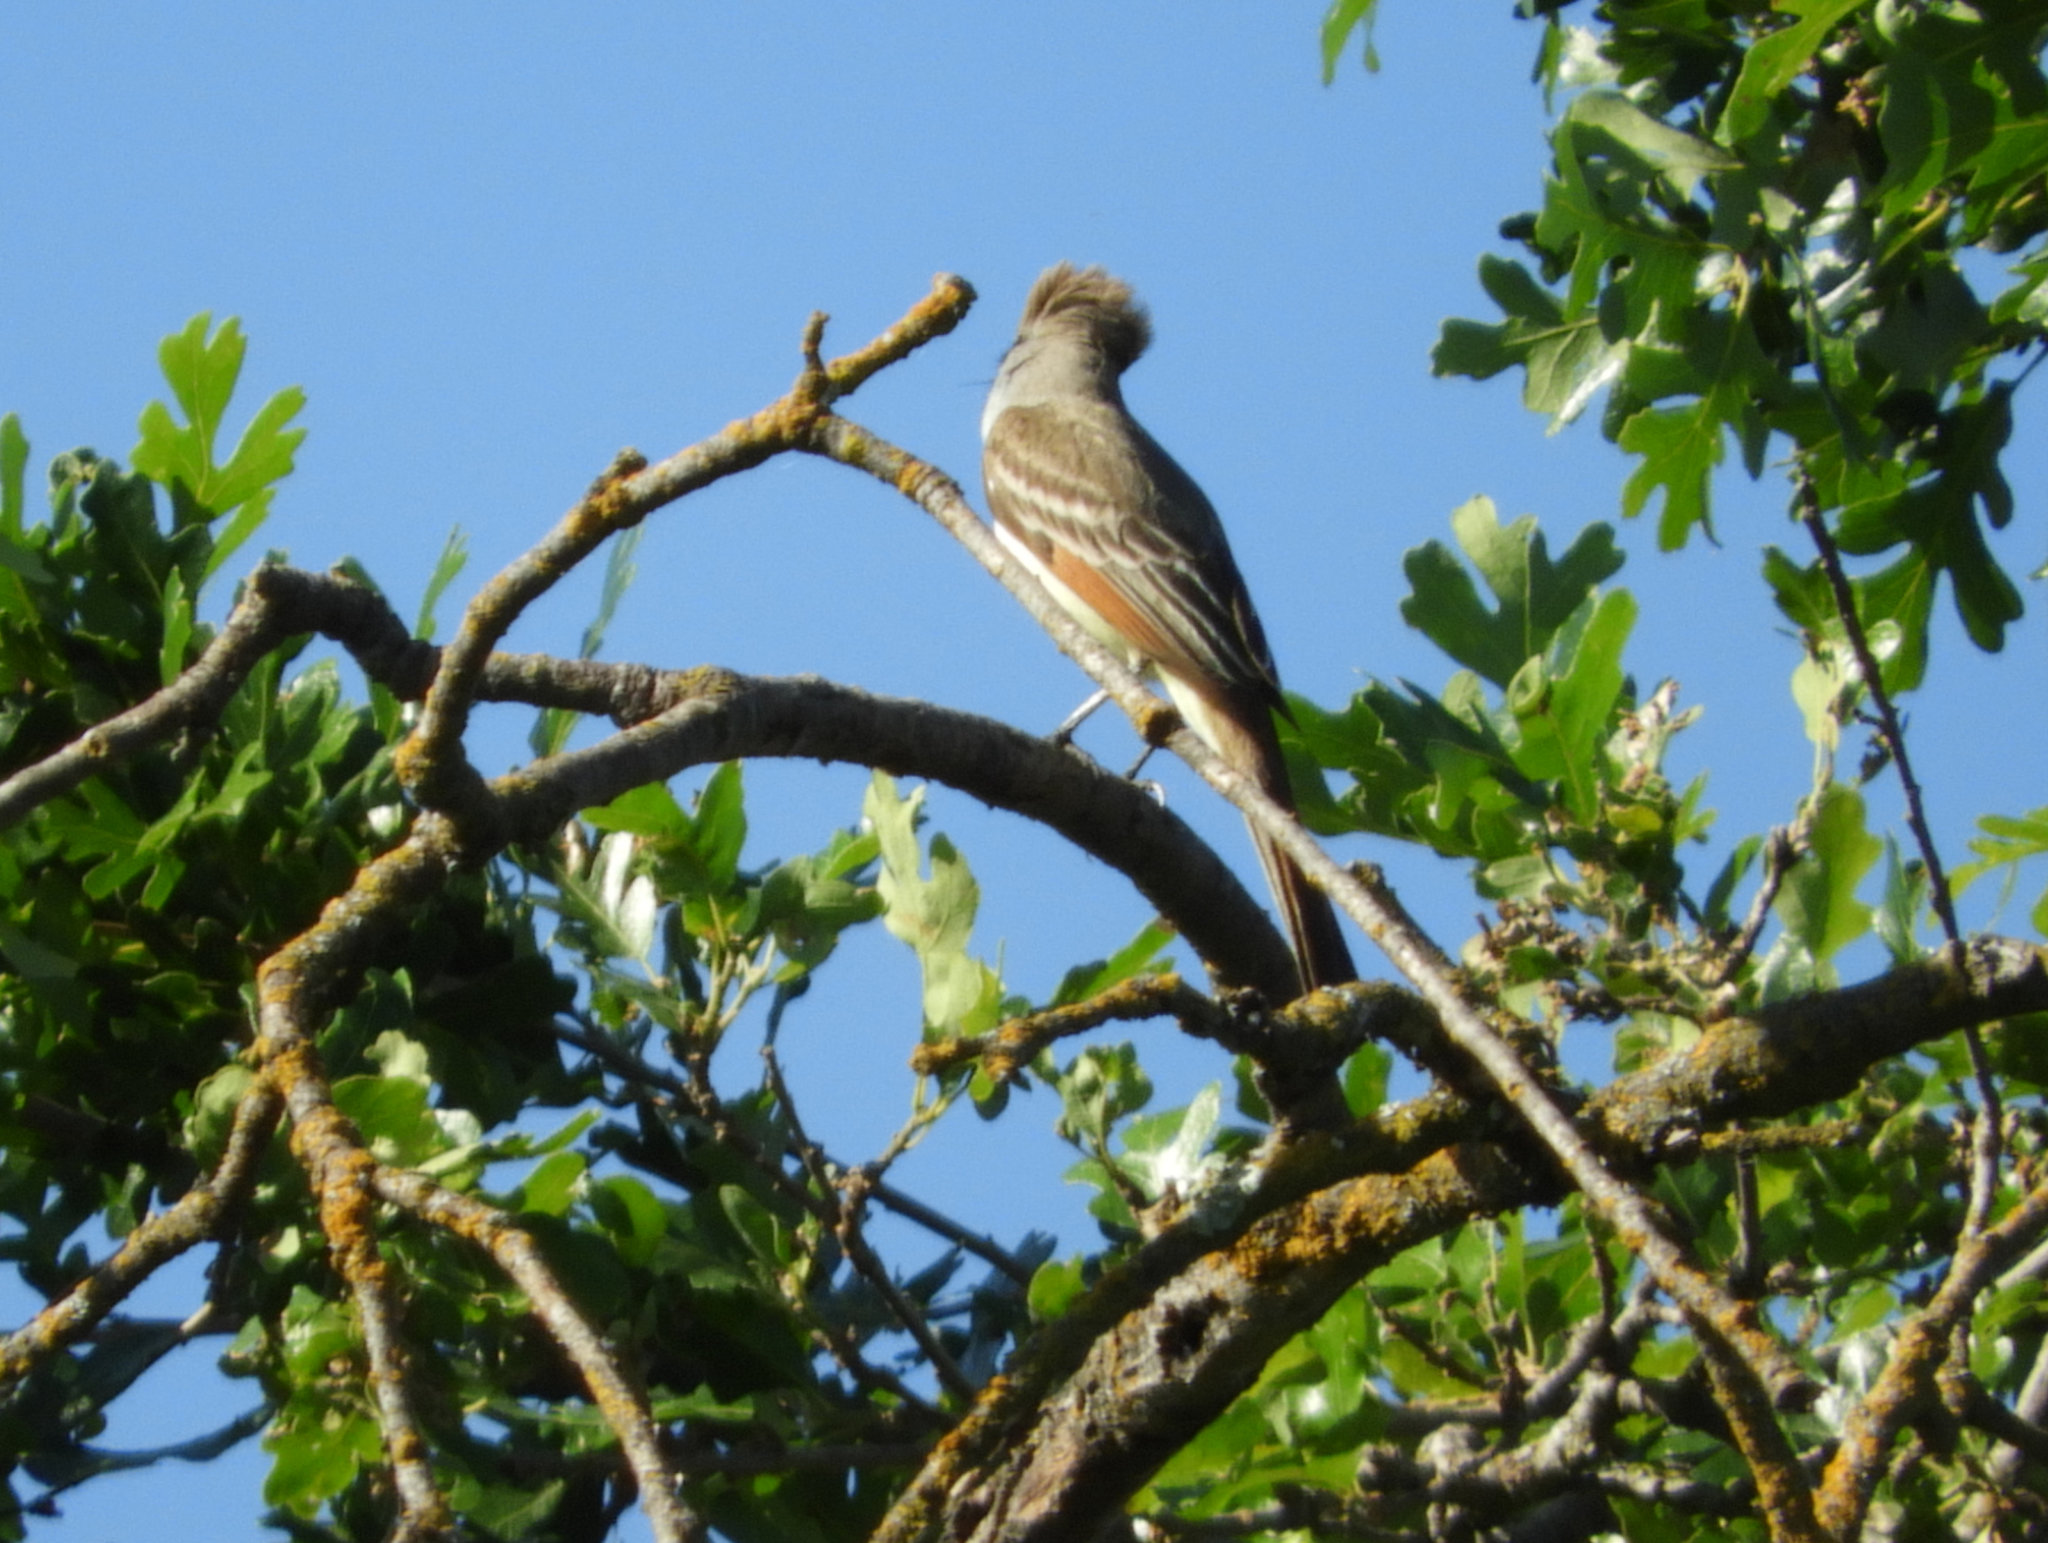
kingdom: Animalia
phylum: Chordata
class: Aves
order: Passeriformes
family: Tyrannidae
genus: Myiarchus
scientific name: Myiarchus cinerascens
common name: Ash-throated flycatcher
